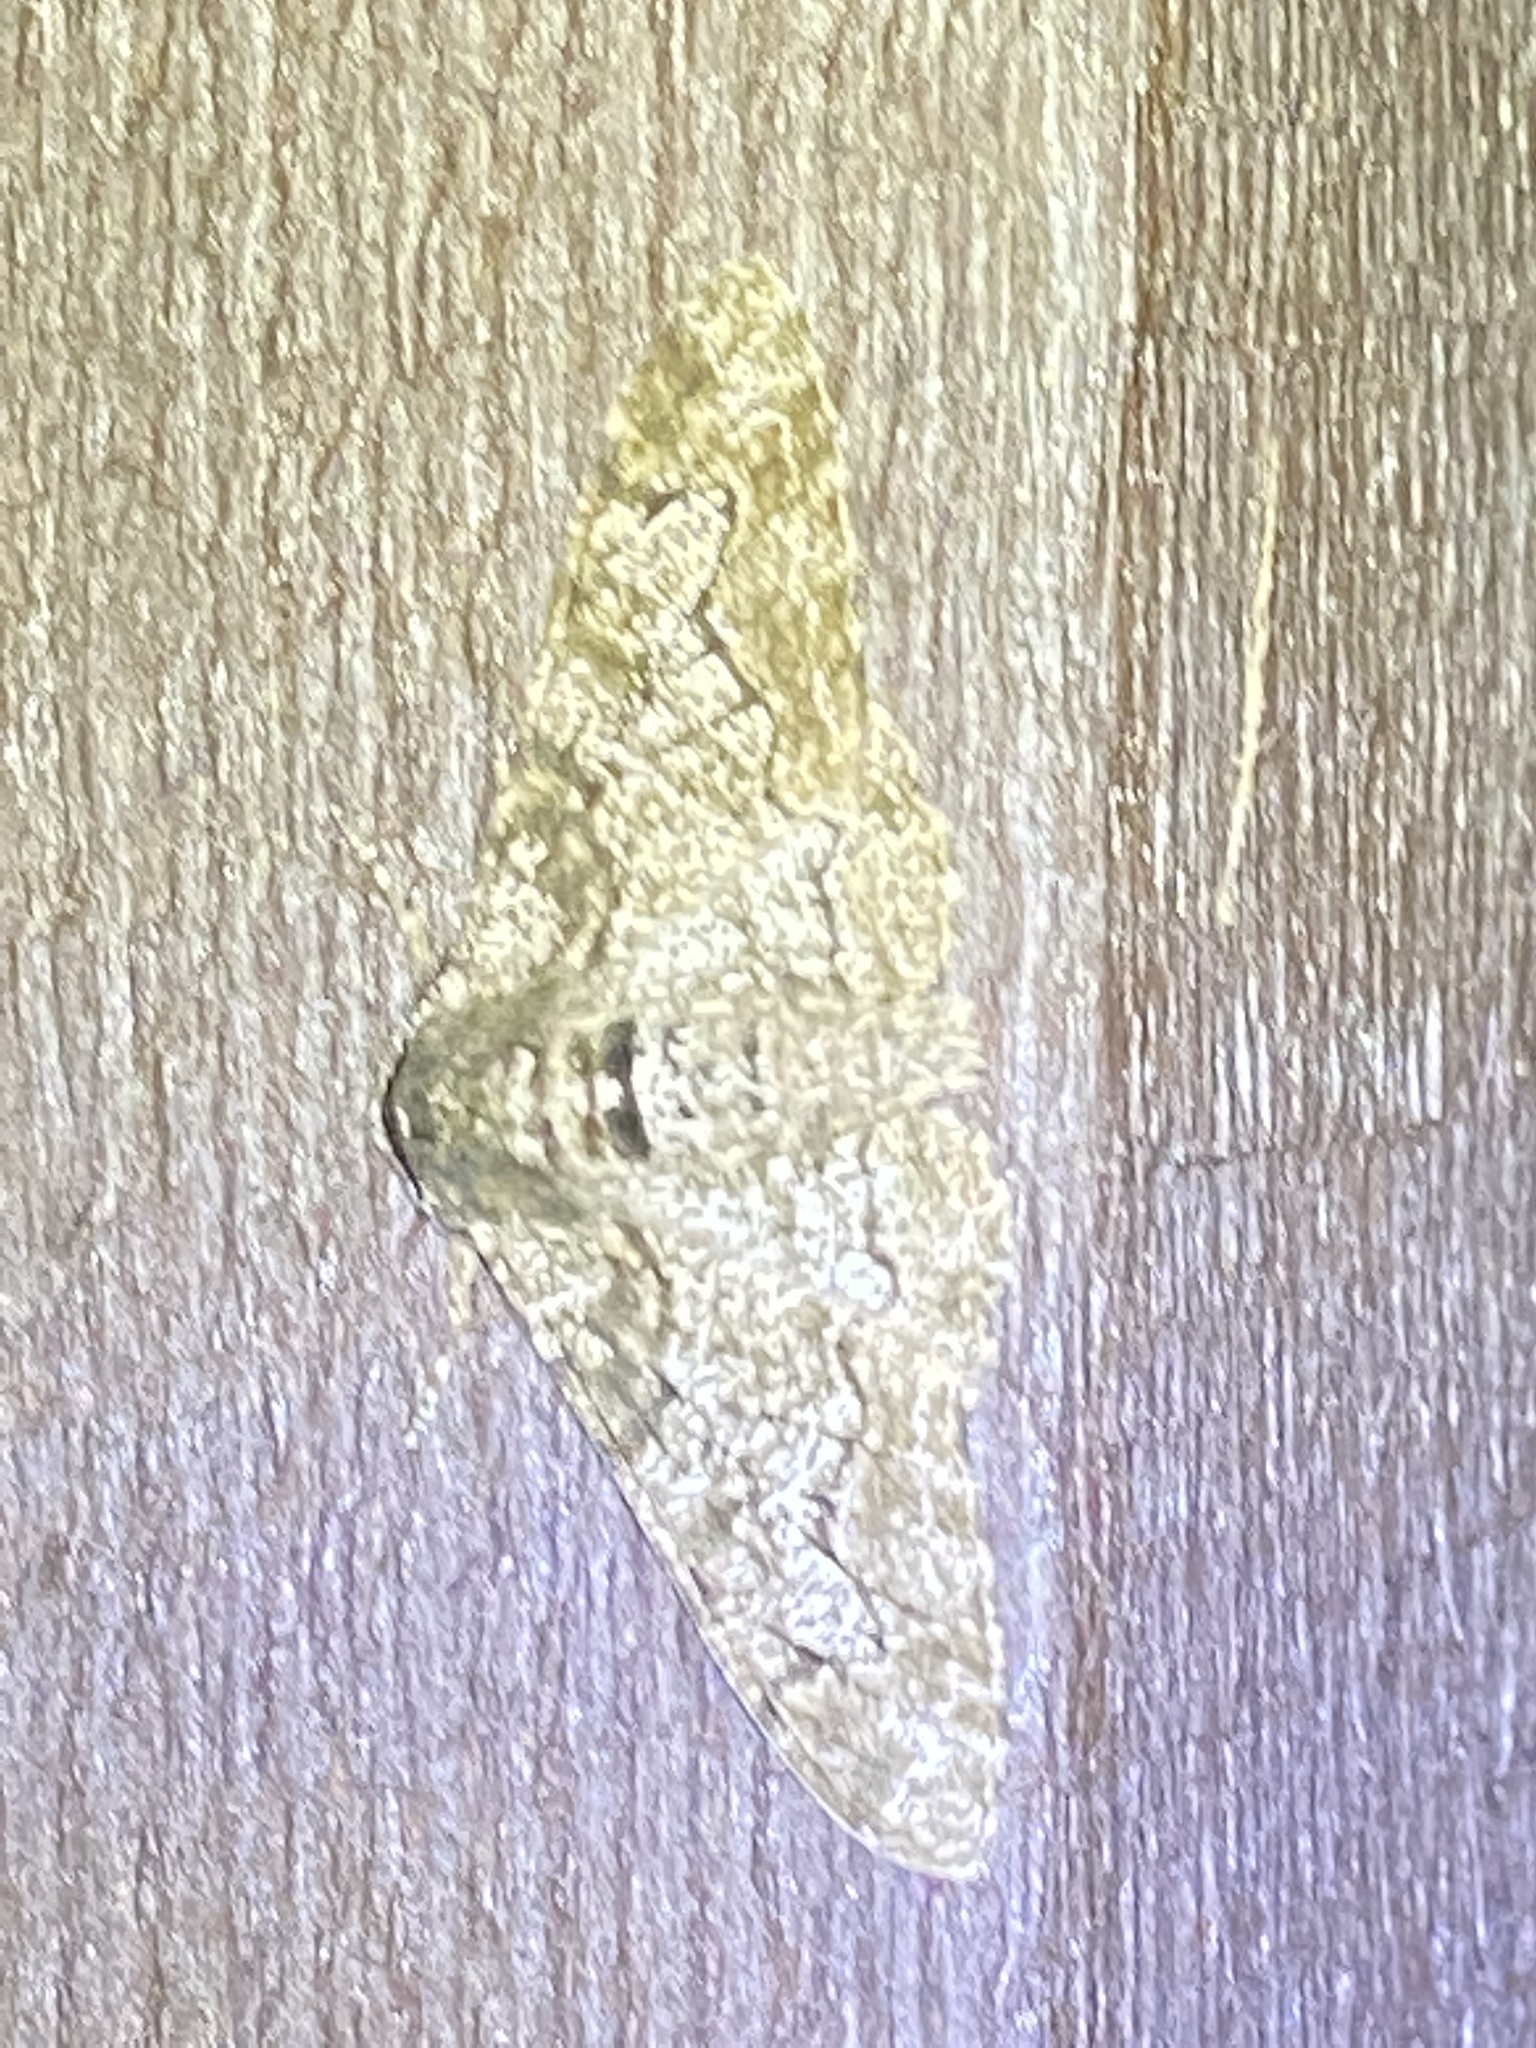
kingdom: Animalia
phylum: Arthropoda
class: Insecta
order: Lepidoptera
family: Geometridae
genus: Biston
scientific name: Biston betularia
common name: Peppered moth
